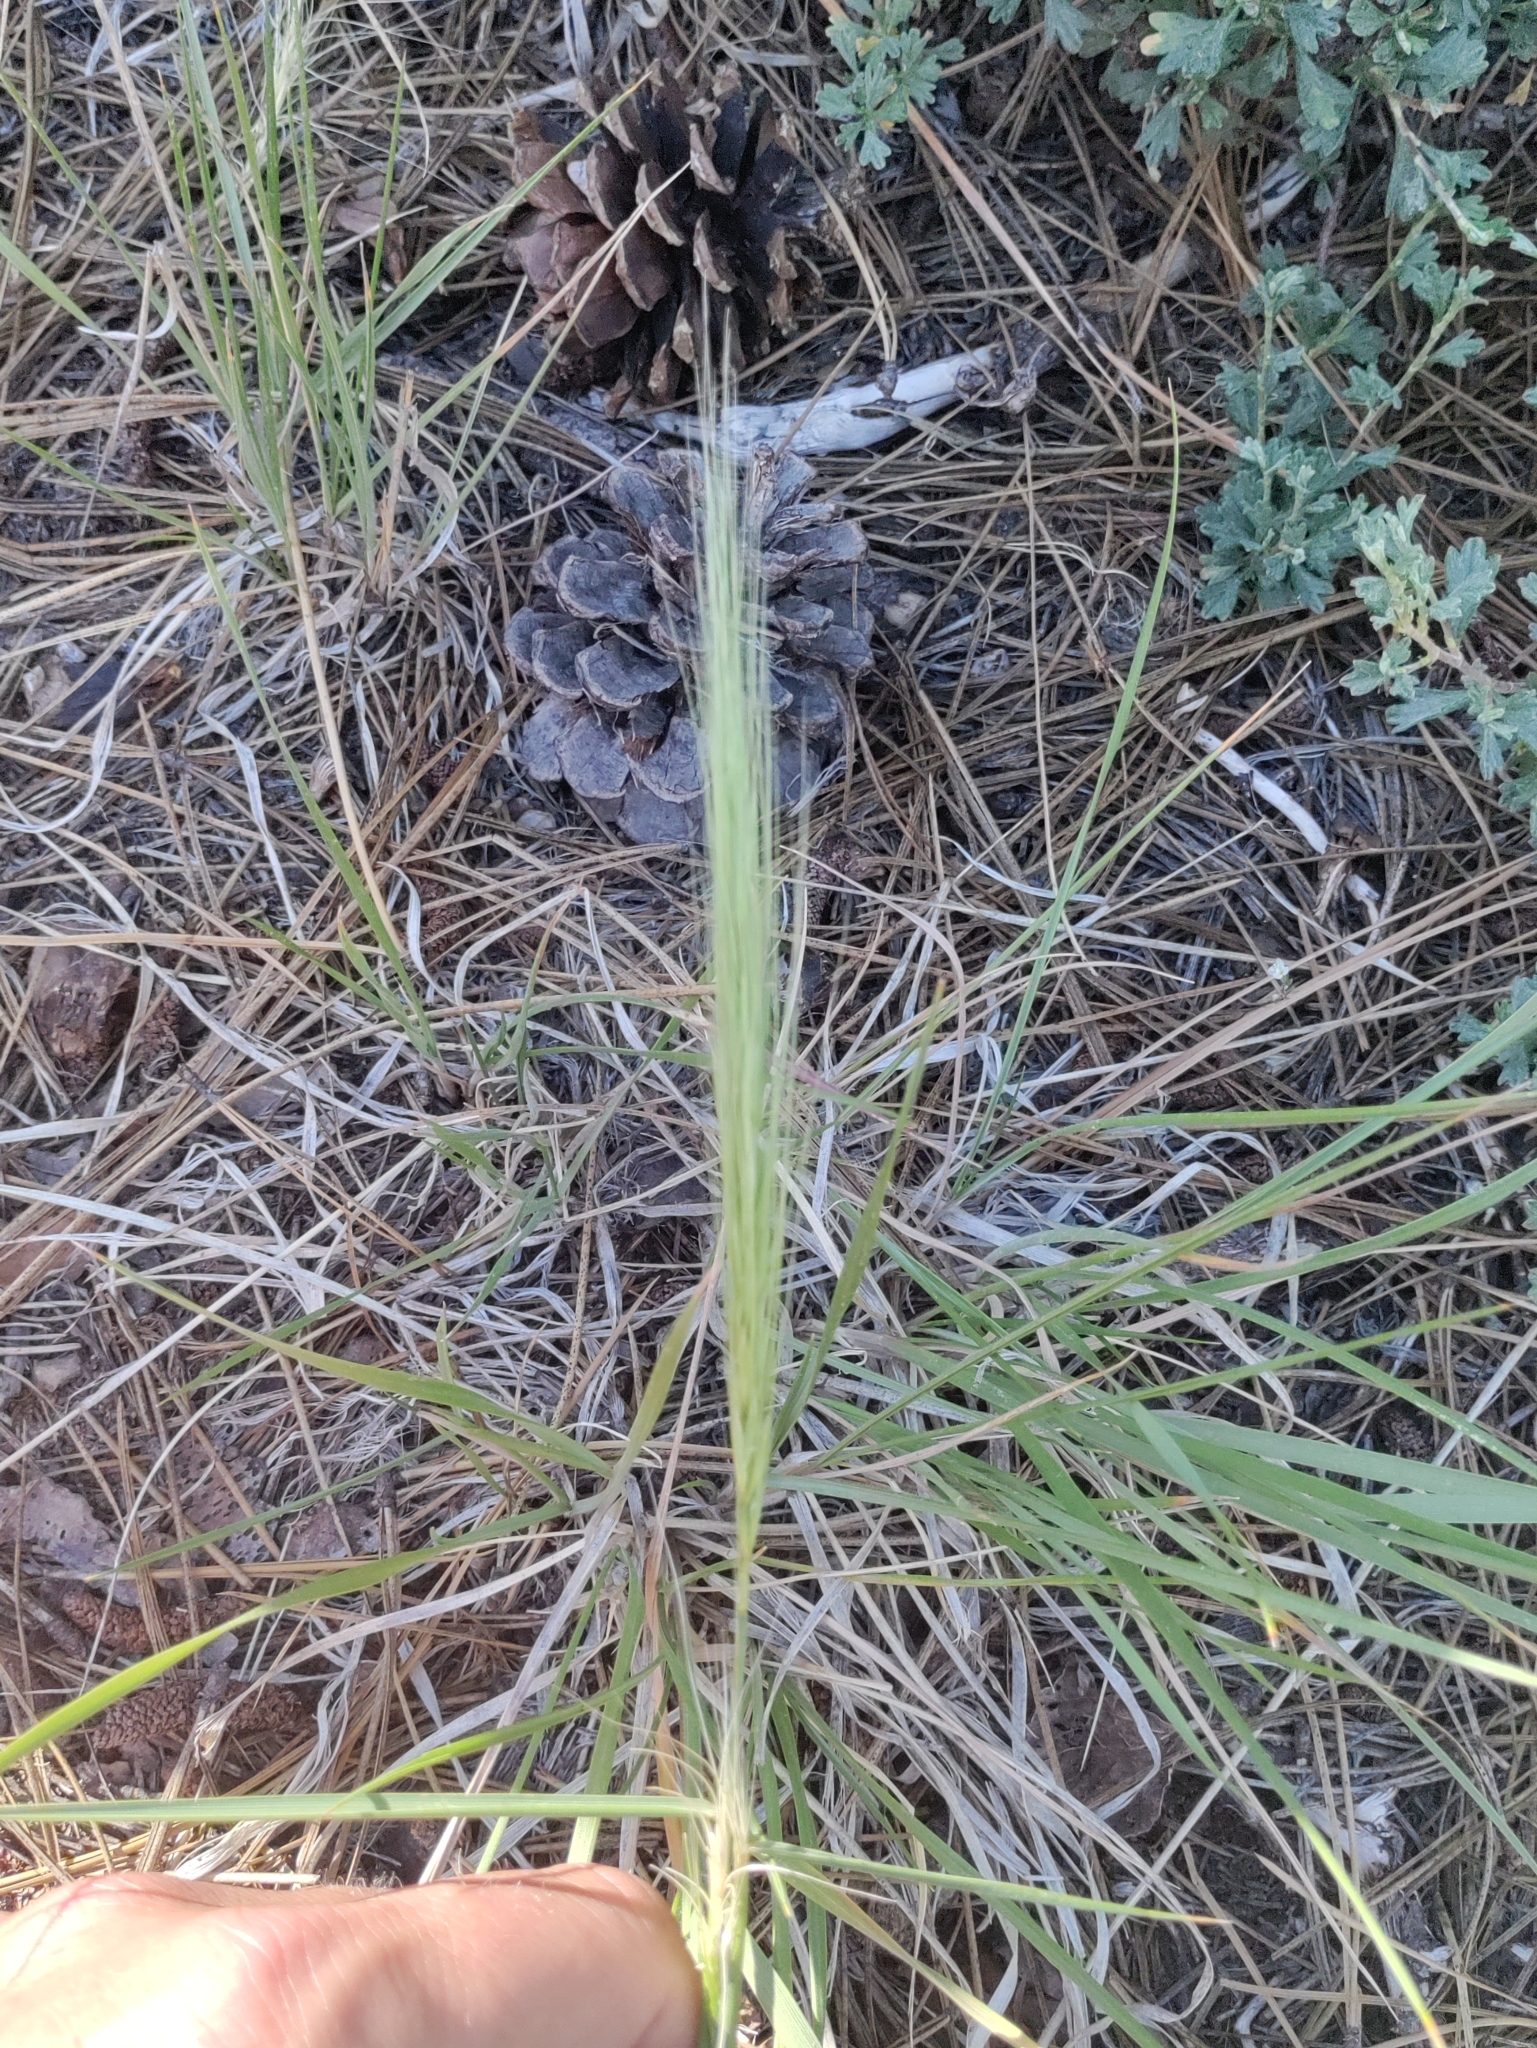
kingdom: Plantae
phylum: Tracheophyta
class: Liliopsida
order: Poales
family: Poaceae
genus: Elymus
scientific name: Elymus elymoides
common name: Bottlebrush squirreltail
